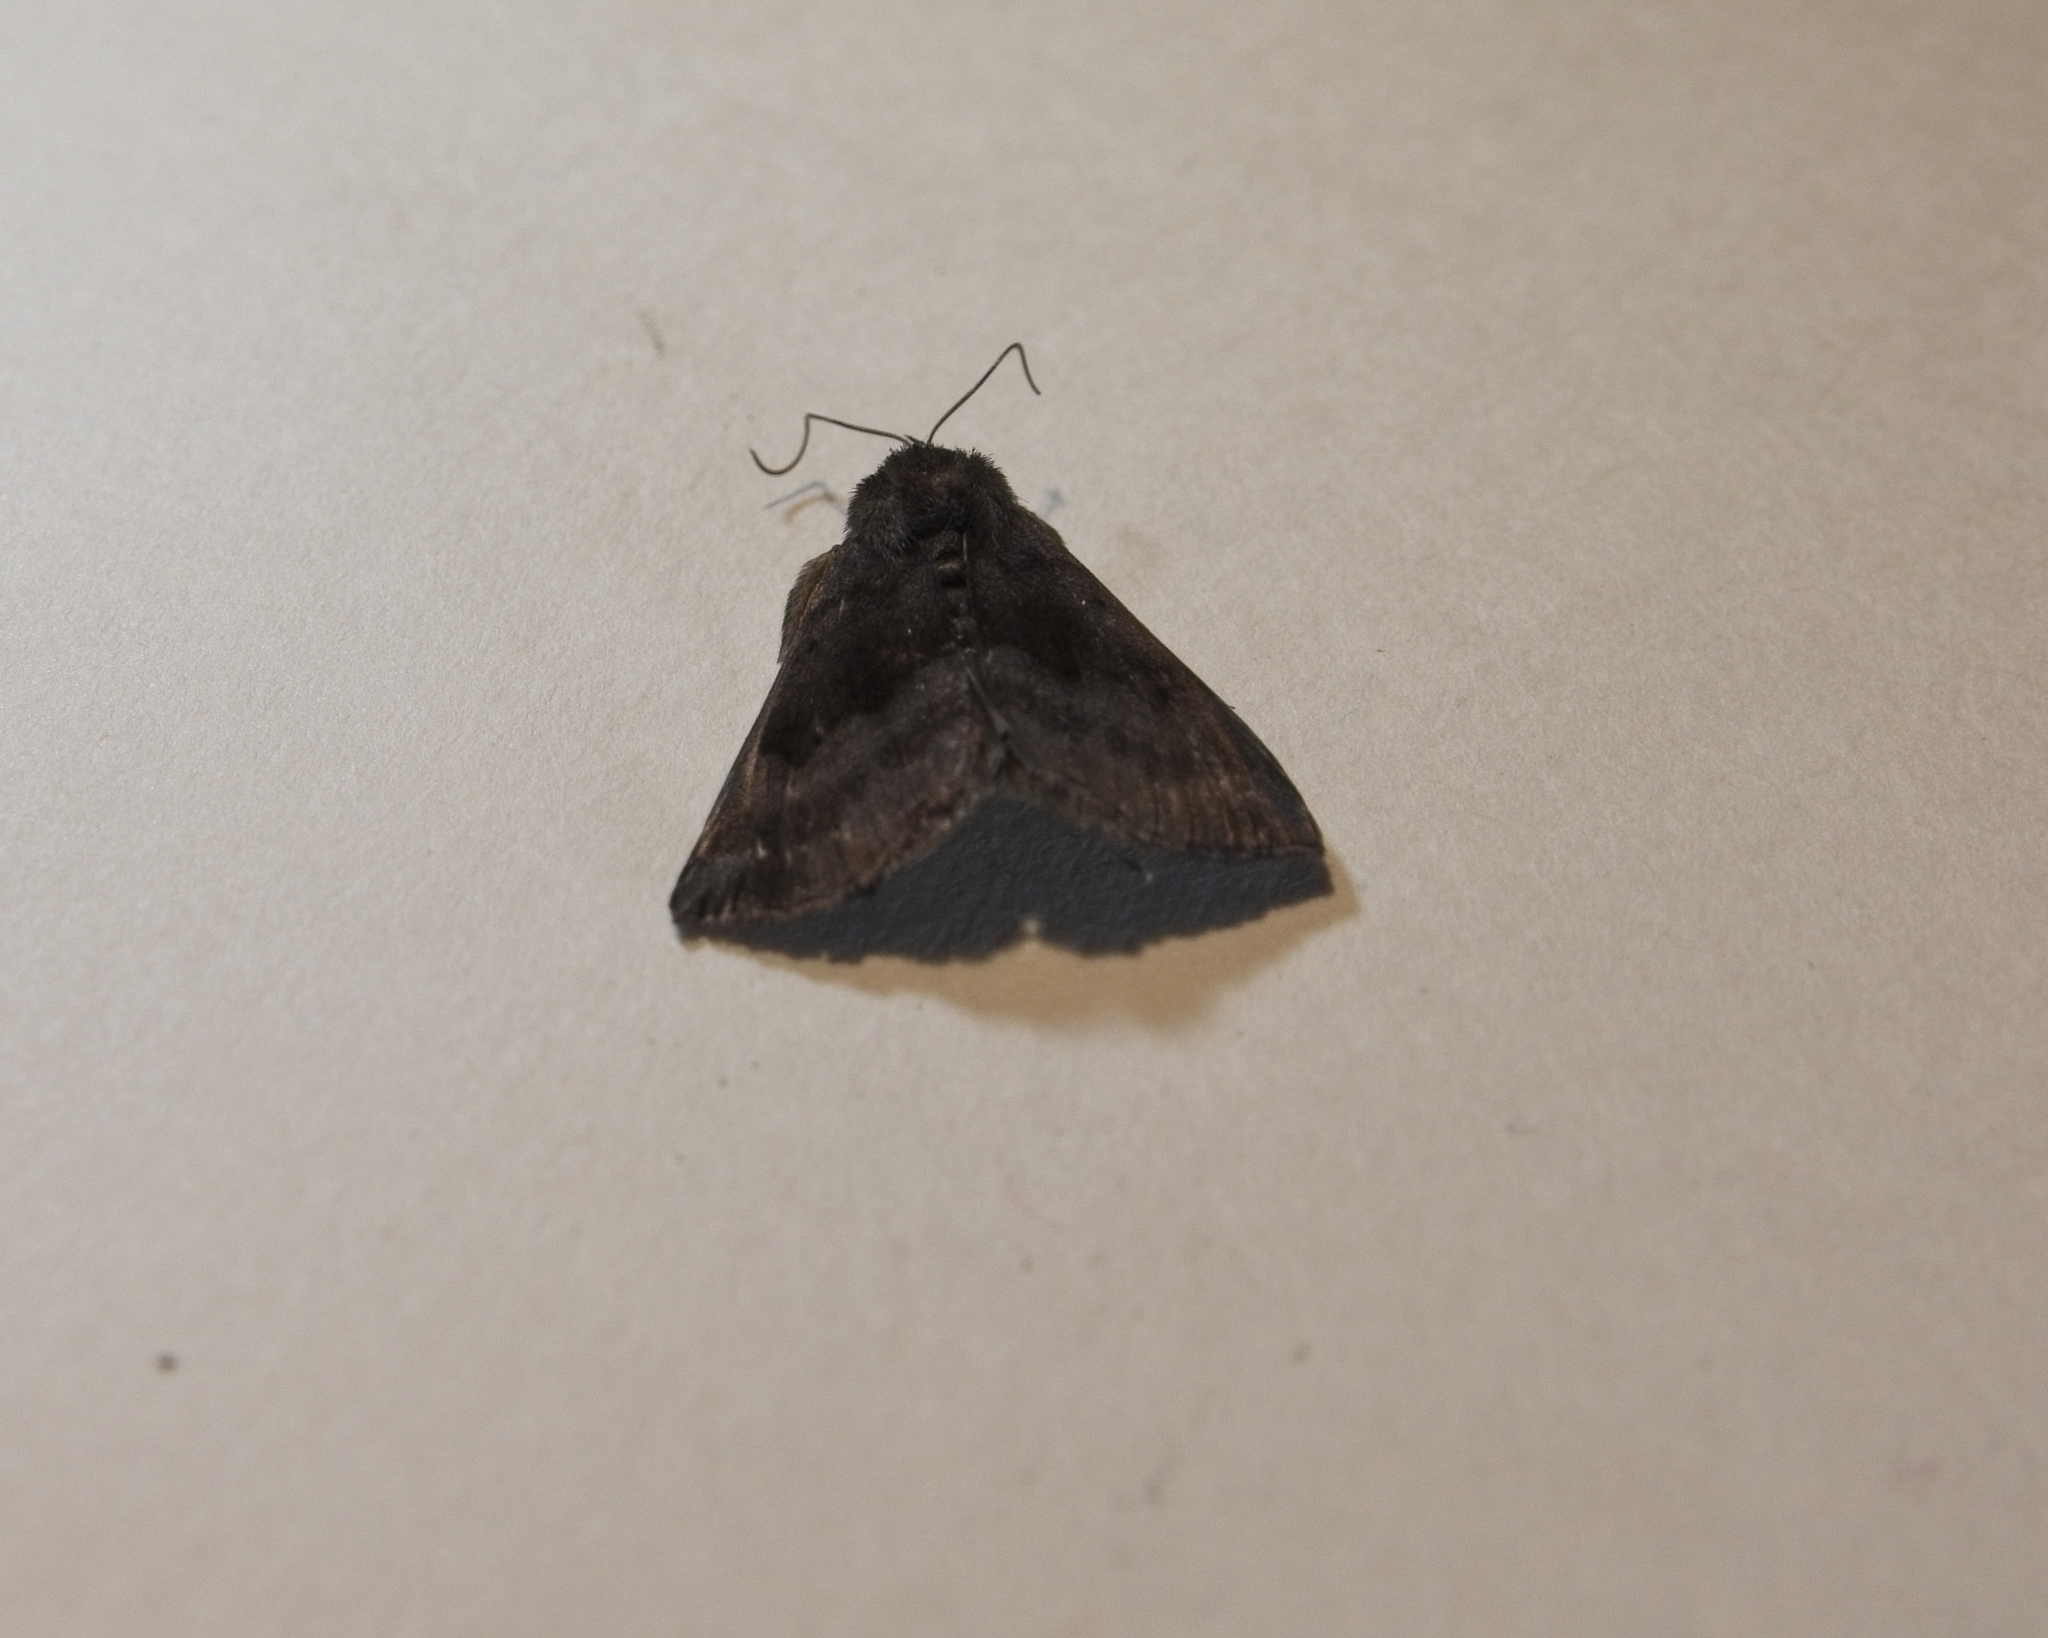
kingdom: Animalia
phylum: Arthropoda
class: Insecta
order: Lepidoptera
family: Erebidae
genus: Hypena
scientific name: Hypena madefactalis
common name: Gray-edged snout
